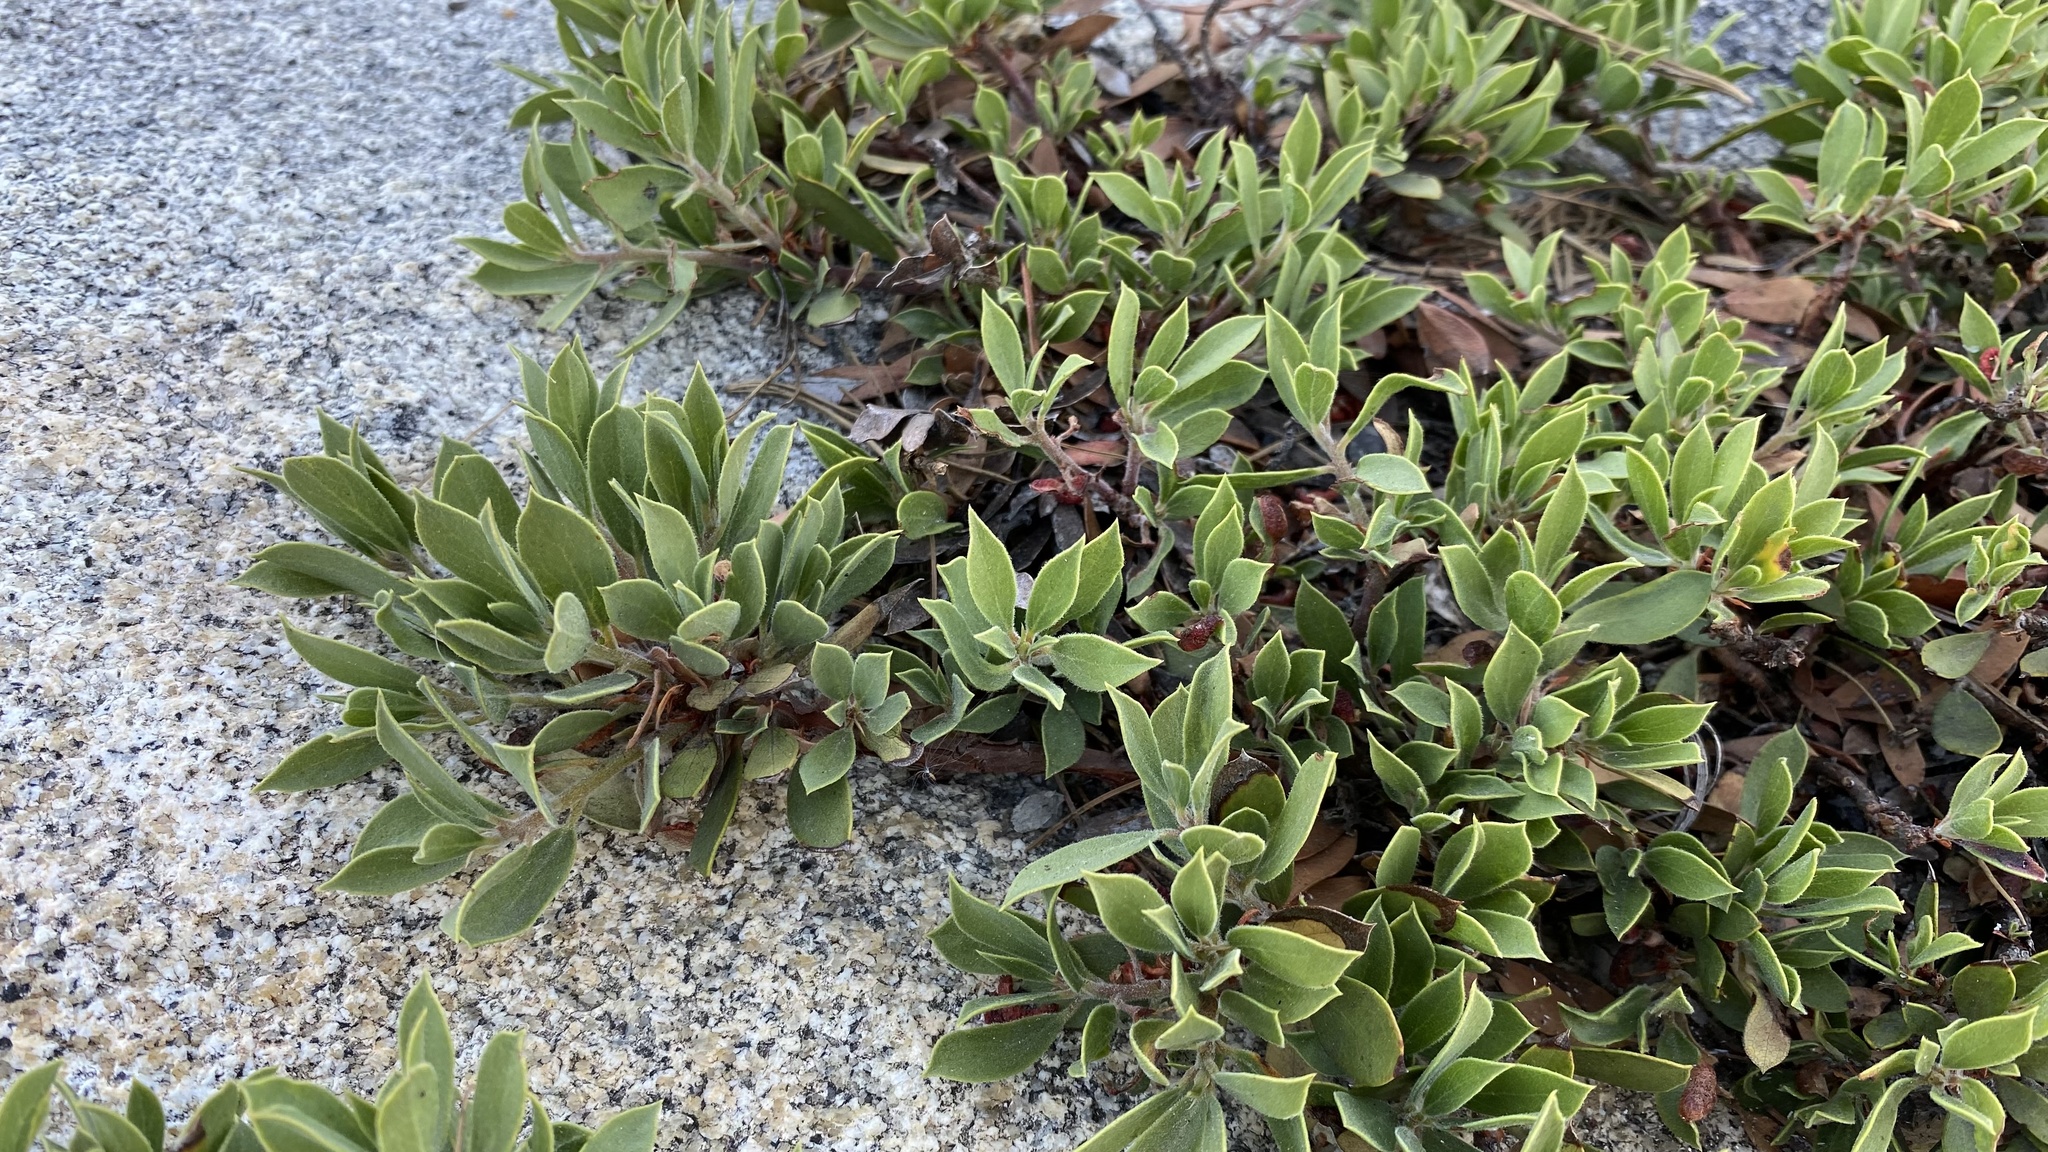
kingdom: Plantae
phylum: Tracheophyta
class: Magnoliopsida
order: Ericales
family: Ericaceae
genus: Arctostaphylos
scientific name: Arctostaphylos nevadensis
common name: Pinemat manzanita
